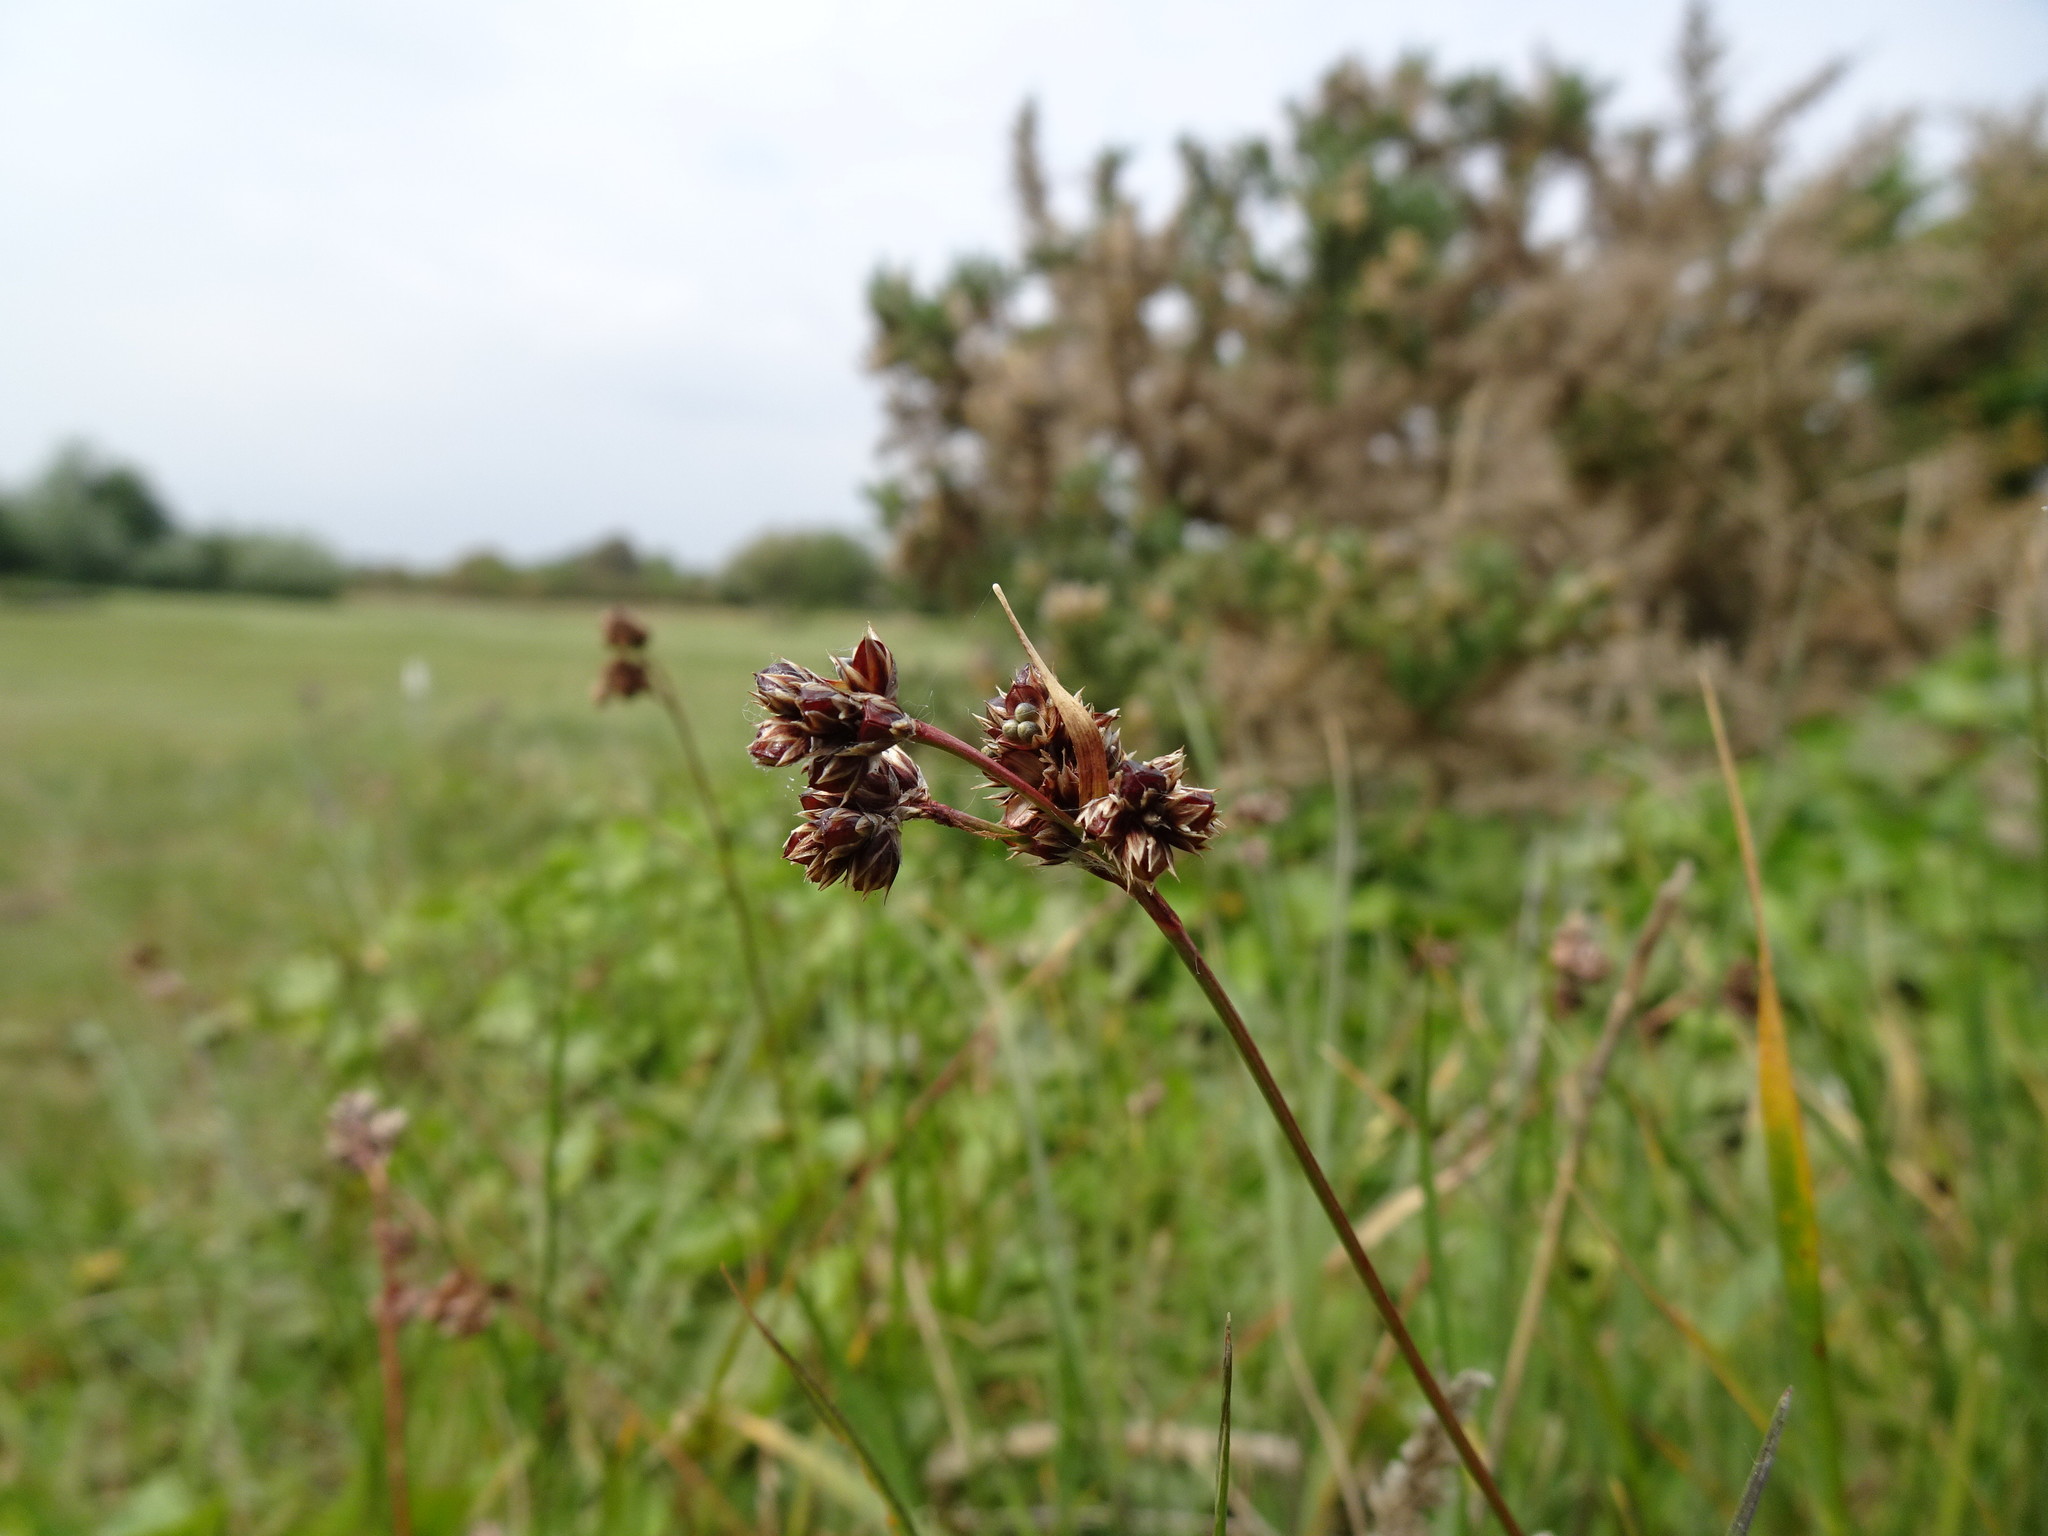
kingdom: Plantae
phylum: Tracheophyta
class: Liliopsida
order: Poales
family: Juncaceae
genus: Luzula
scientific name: Luzula multiflora
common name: Heath wood-rush
